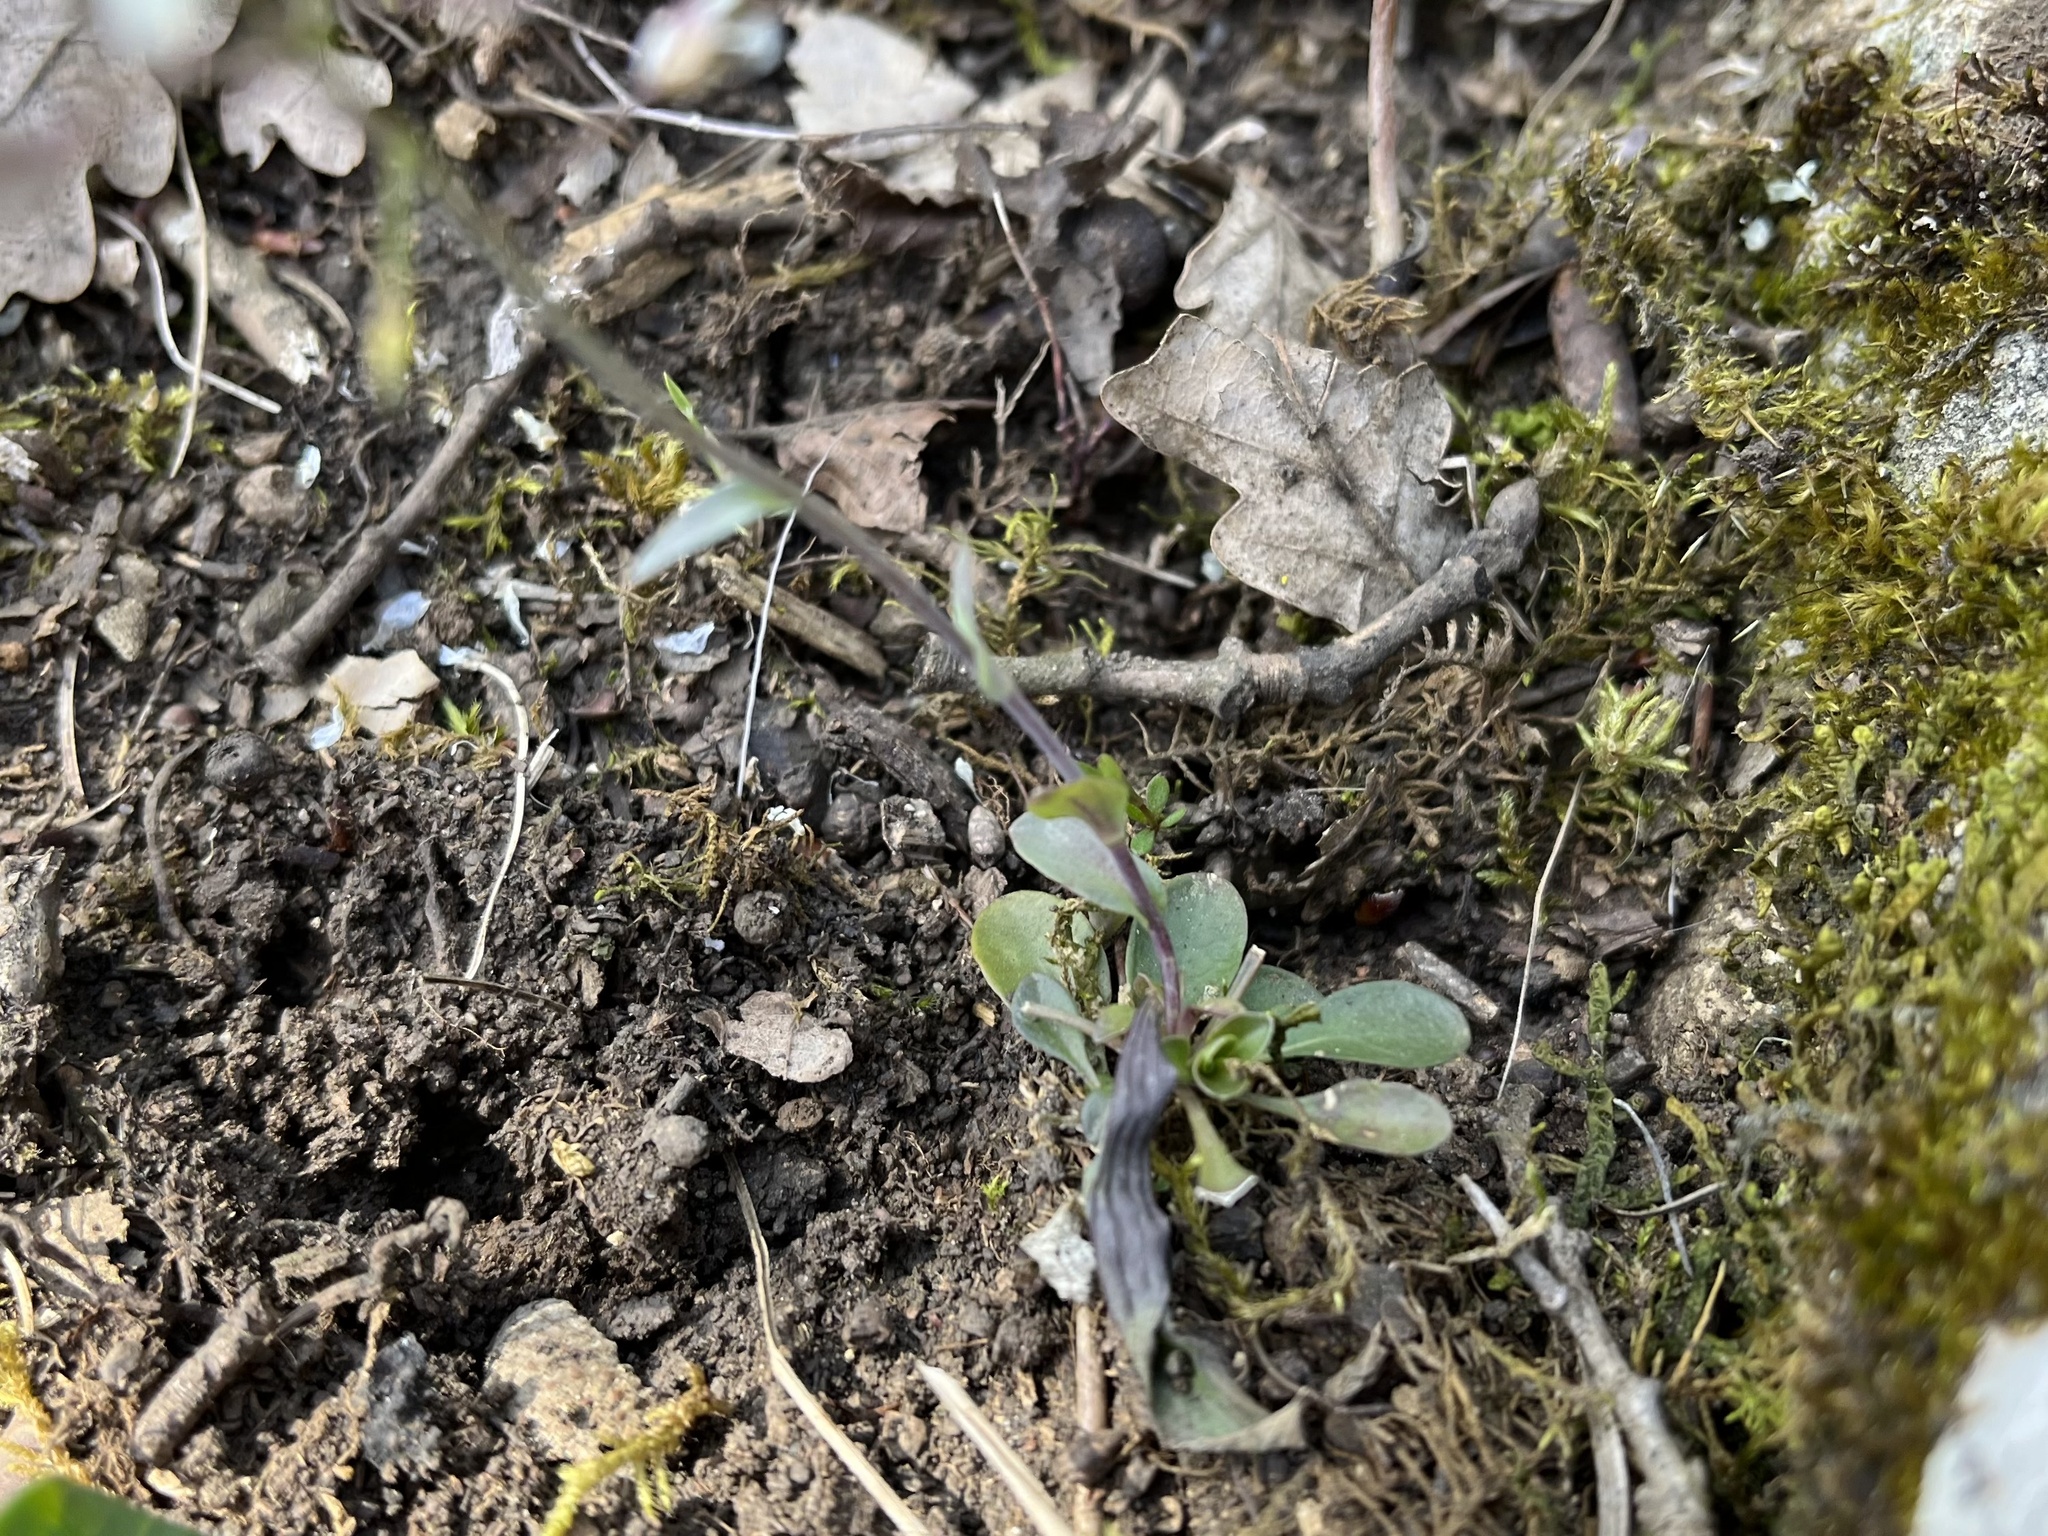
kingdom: Plantae
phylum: Tracheophyta
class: Magnoliopsida
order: Brassicales
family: Brassicaceae
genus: Noccaea
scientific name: Noccaea montana
